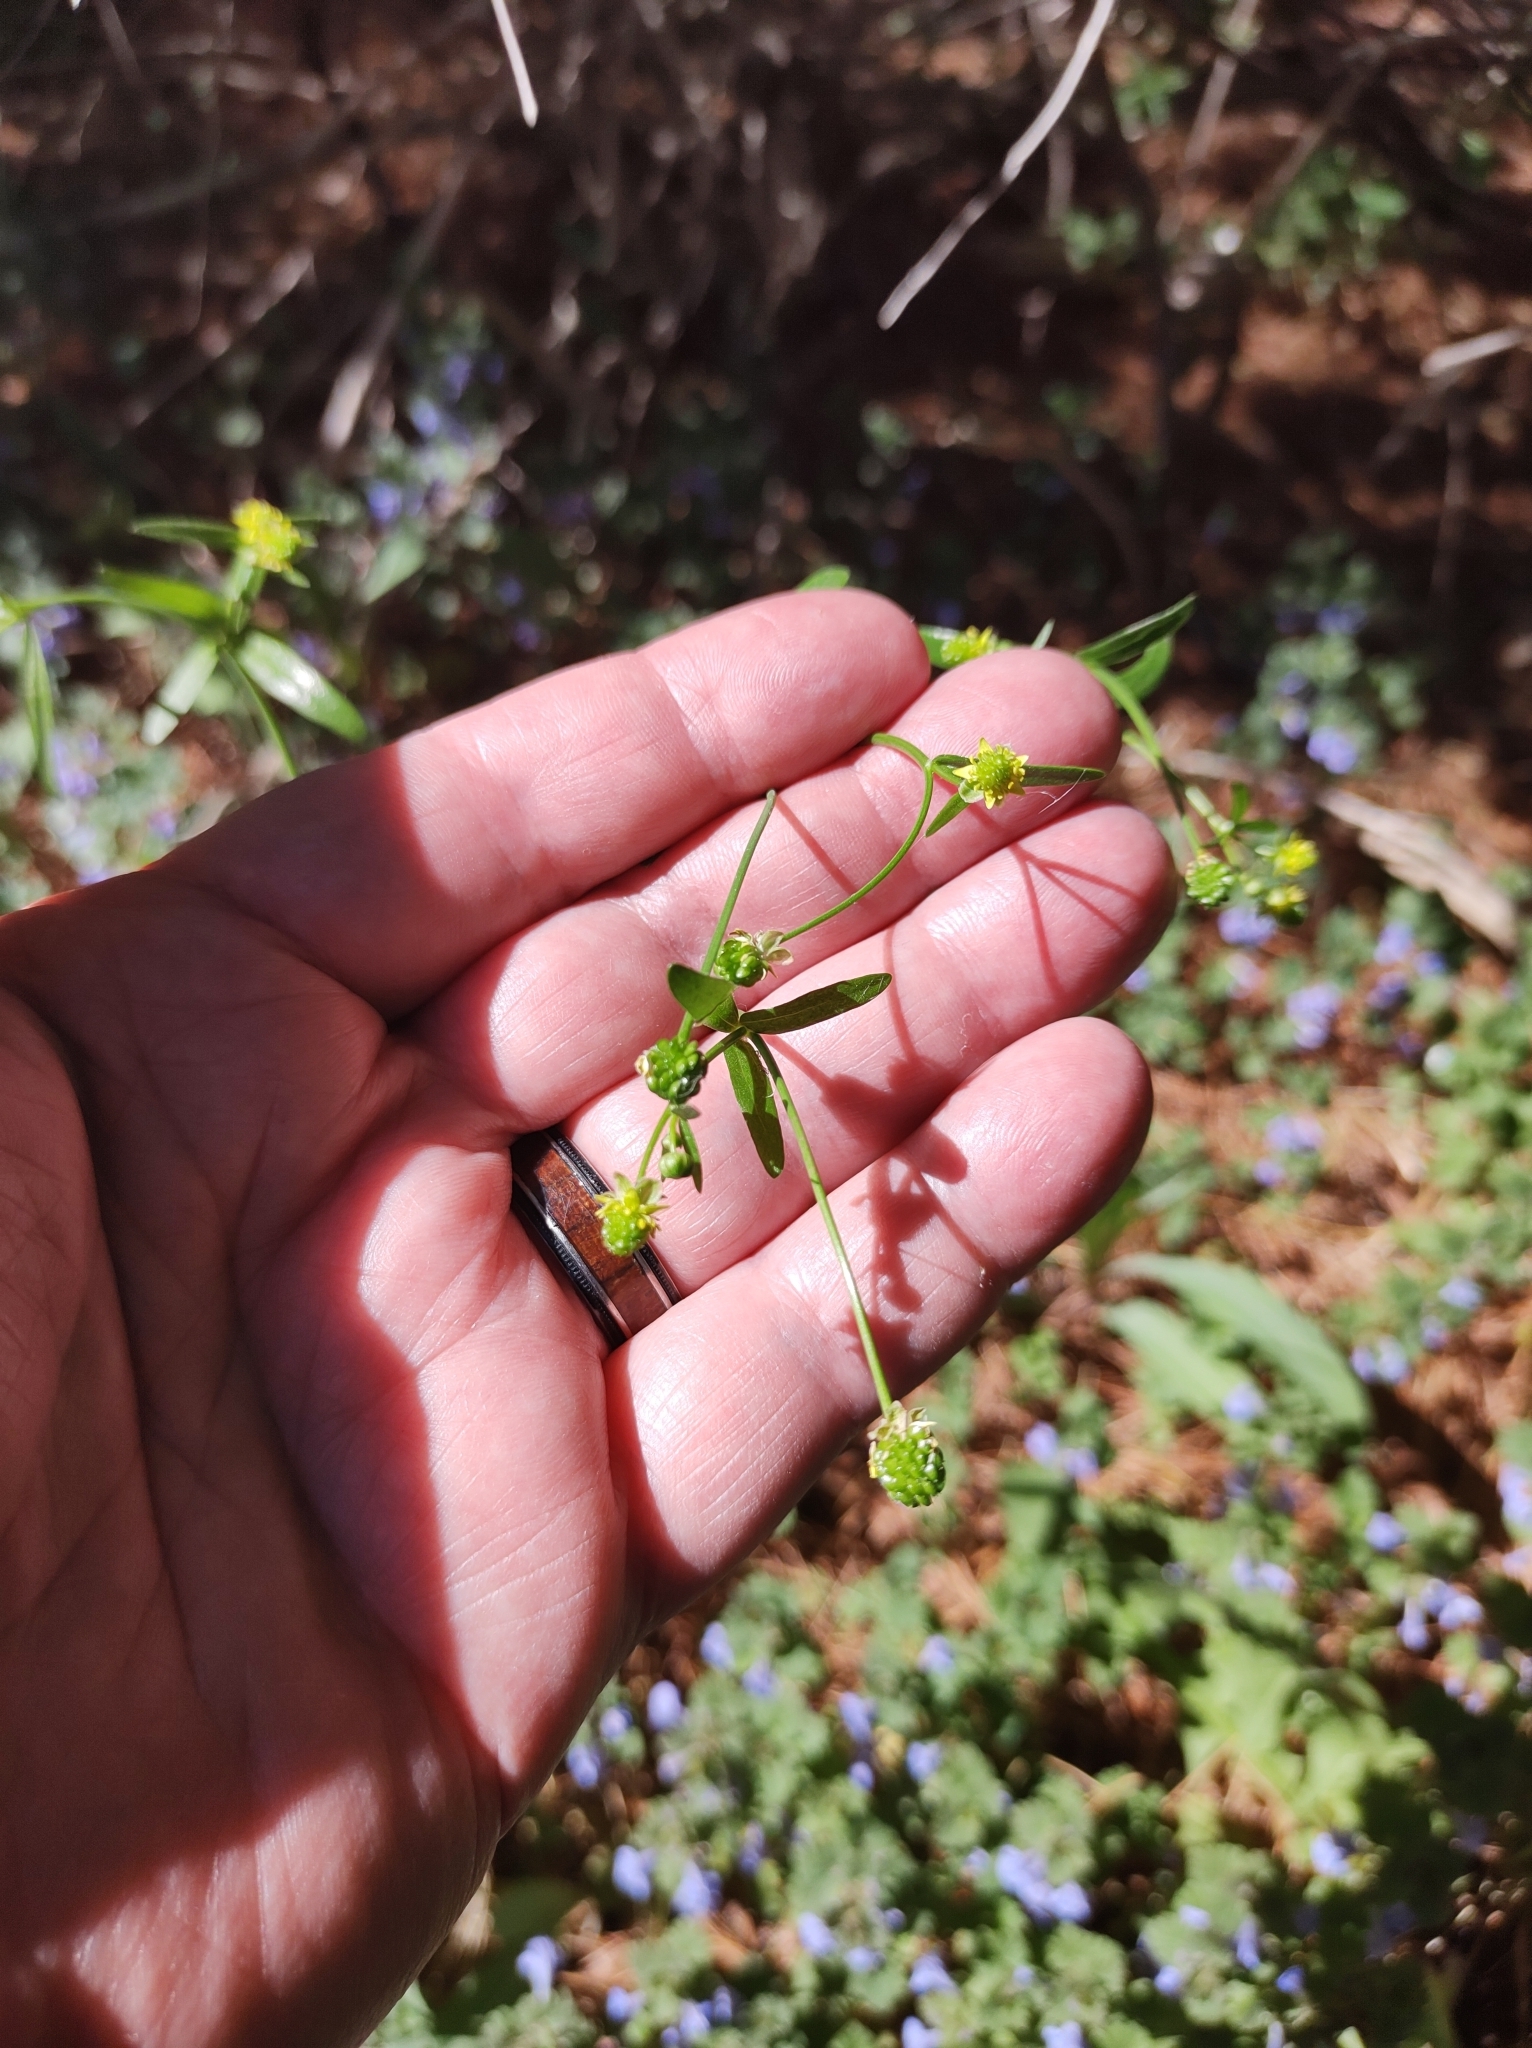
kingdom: Plantae
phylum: Tracheophyta
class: Magnoliopsida
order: Ranunculales
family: Ranunculaceae
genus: Ranunculus
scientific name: Ranunculus abortivus
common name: Early wood buttercup
